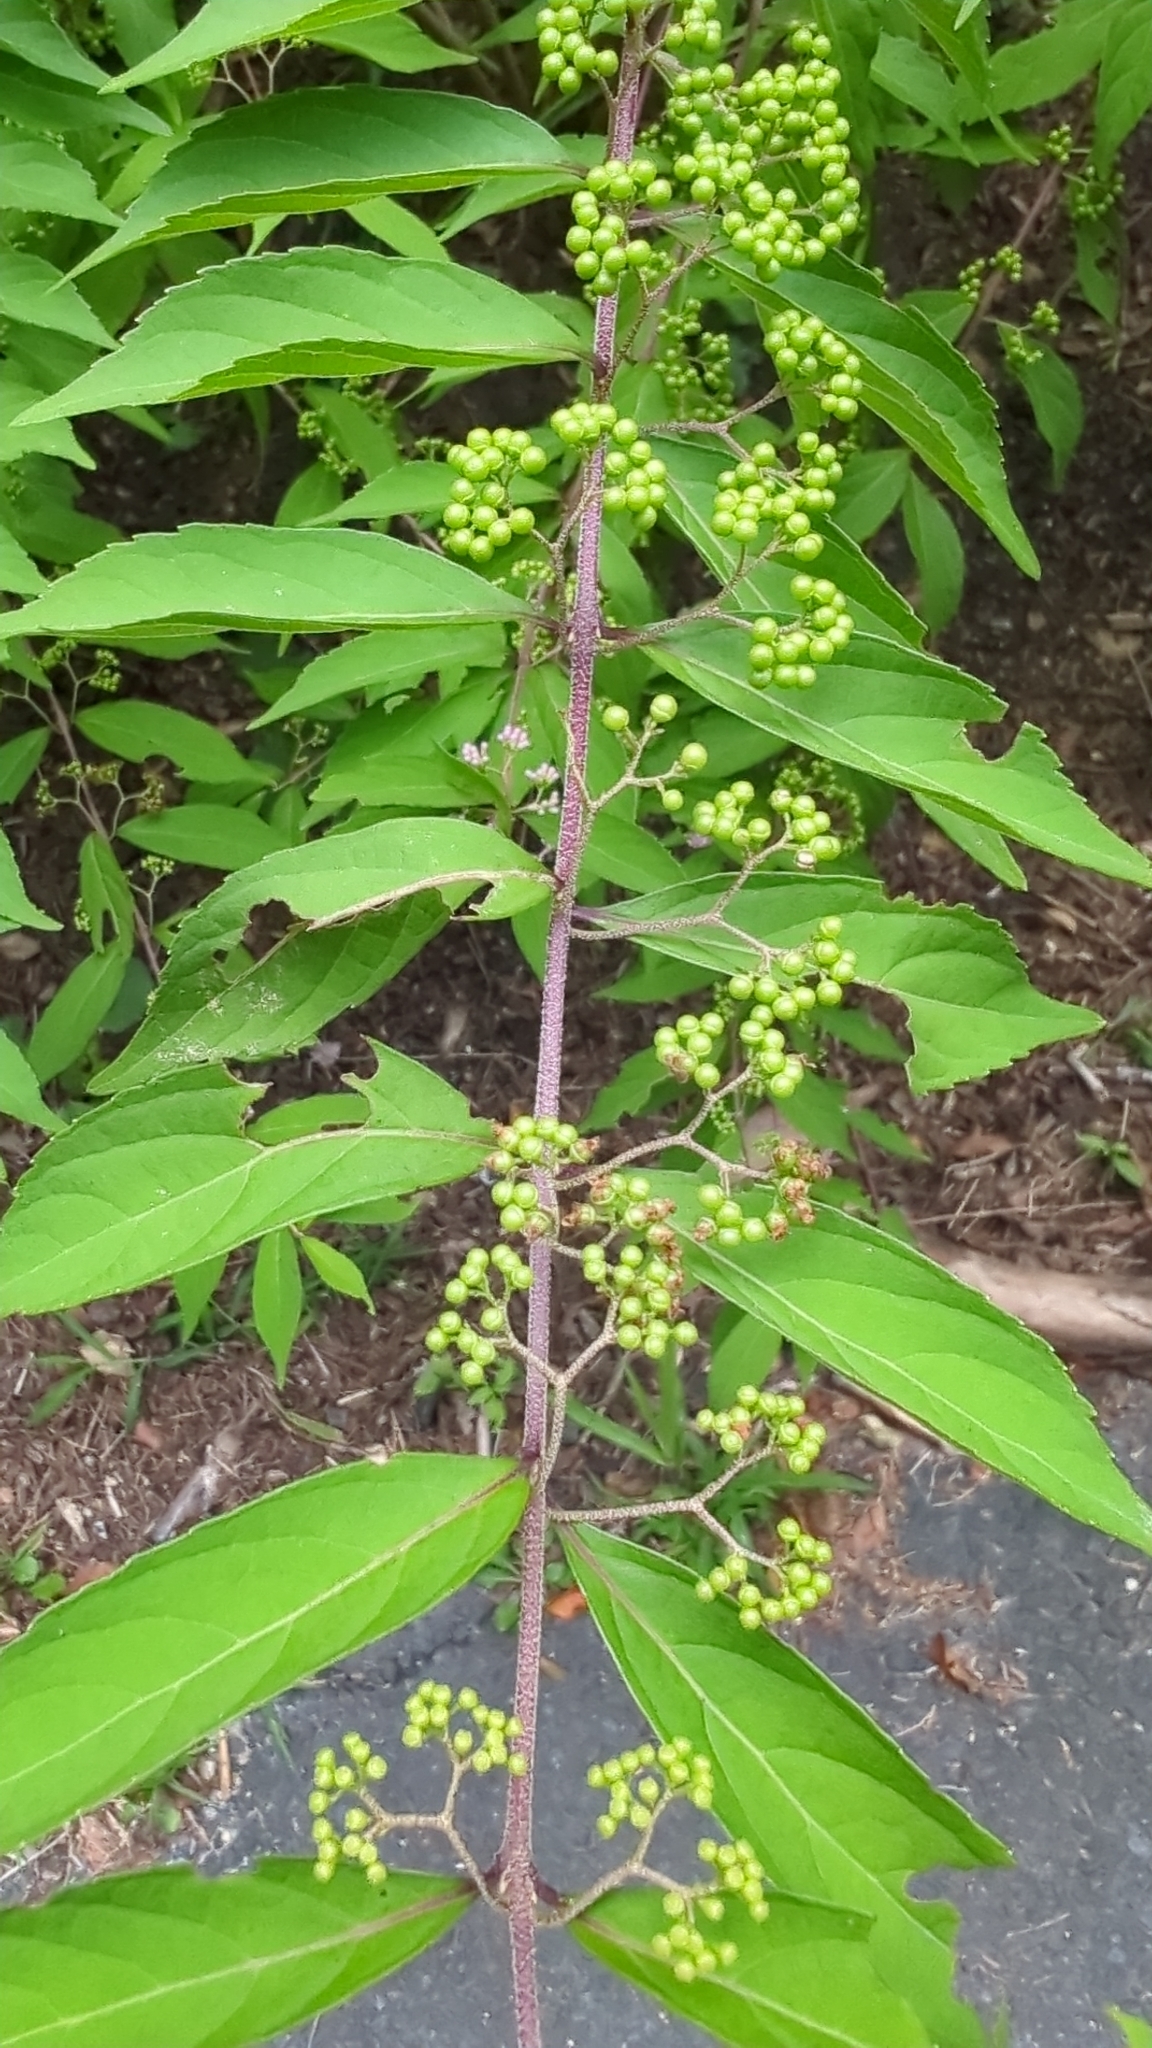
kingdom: Plantae
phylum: Tracheophyta
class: Magnoliopsida
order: Lamiales
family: Lamiaceae
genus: Callicarpa
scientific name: Callicarpa dichotoma
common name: Purple beauty-berry
